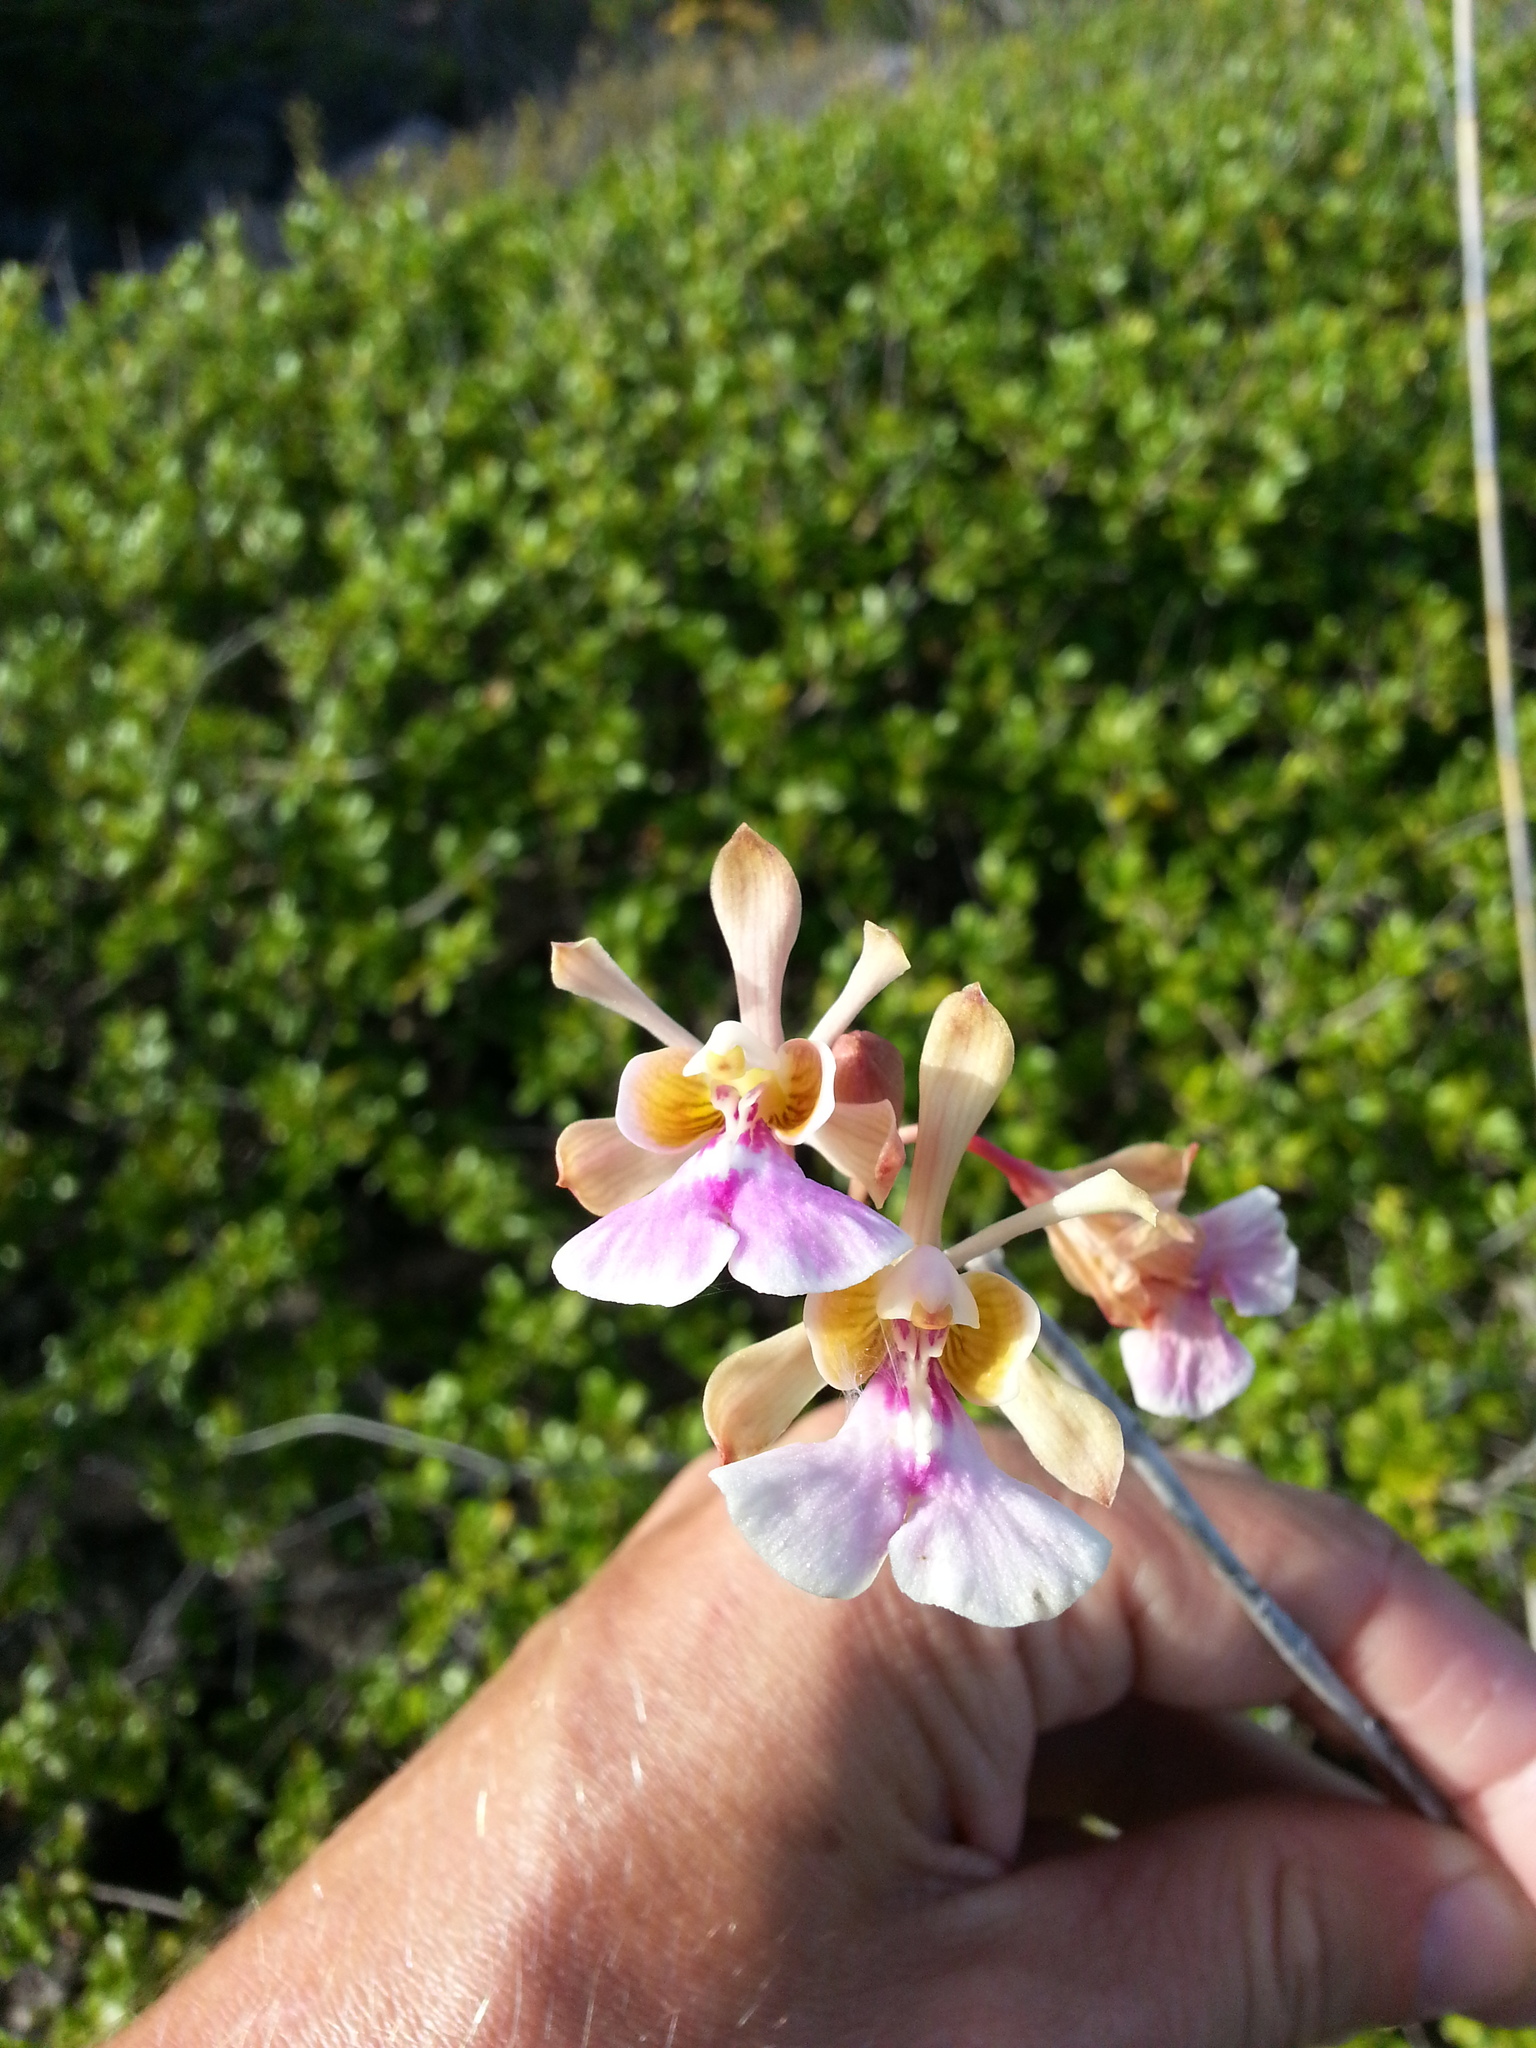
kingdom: Plantae
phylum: Tracheophyta
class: Liliopsida
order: Asparagales
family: Orchidaceae
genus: Psychilis
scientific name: Psychilis macconnelliae
